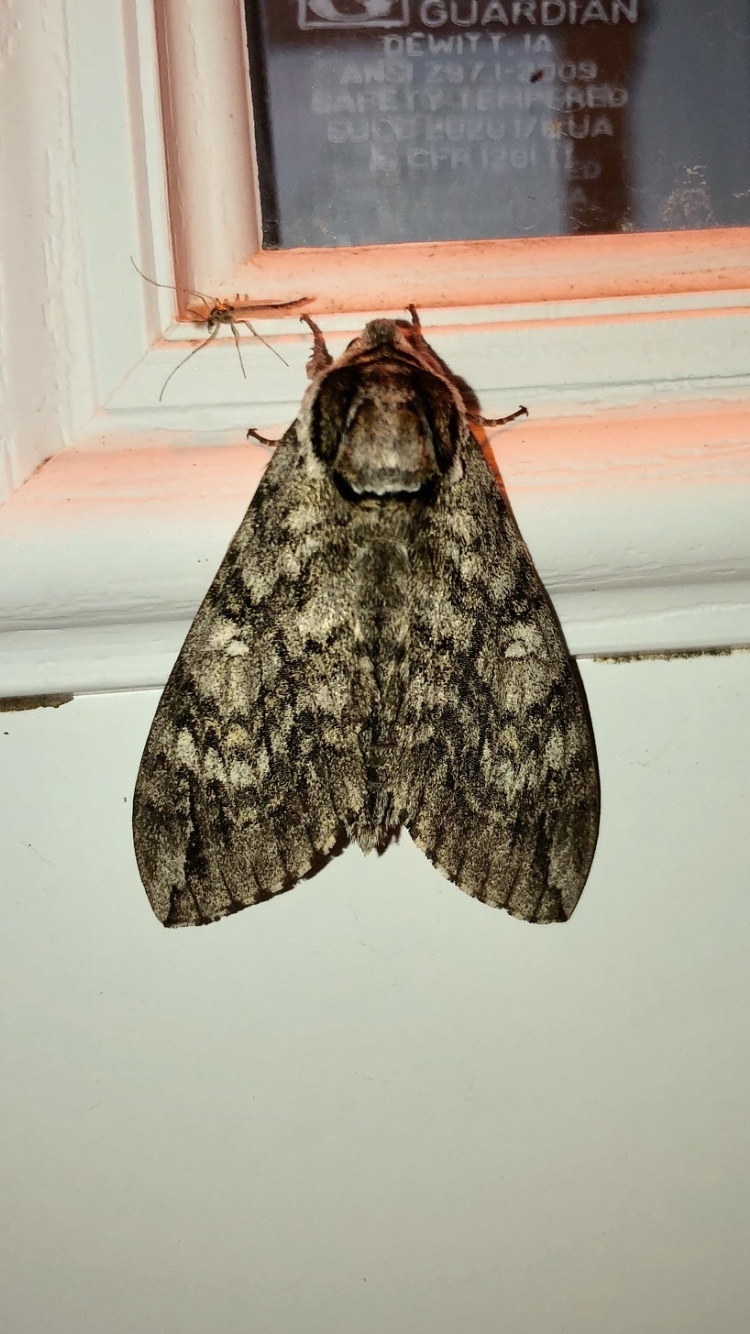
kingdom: Animalia
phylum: Arthropoda
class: Insecta
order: Lepidoptera
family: Sphingidae
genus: Ceratomia
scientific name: Ceratomia undulosa
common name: Waved sphinx
